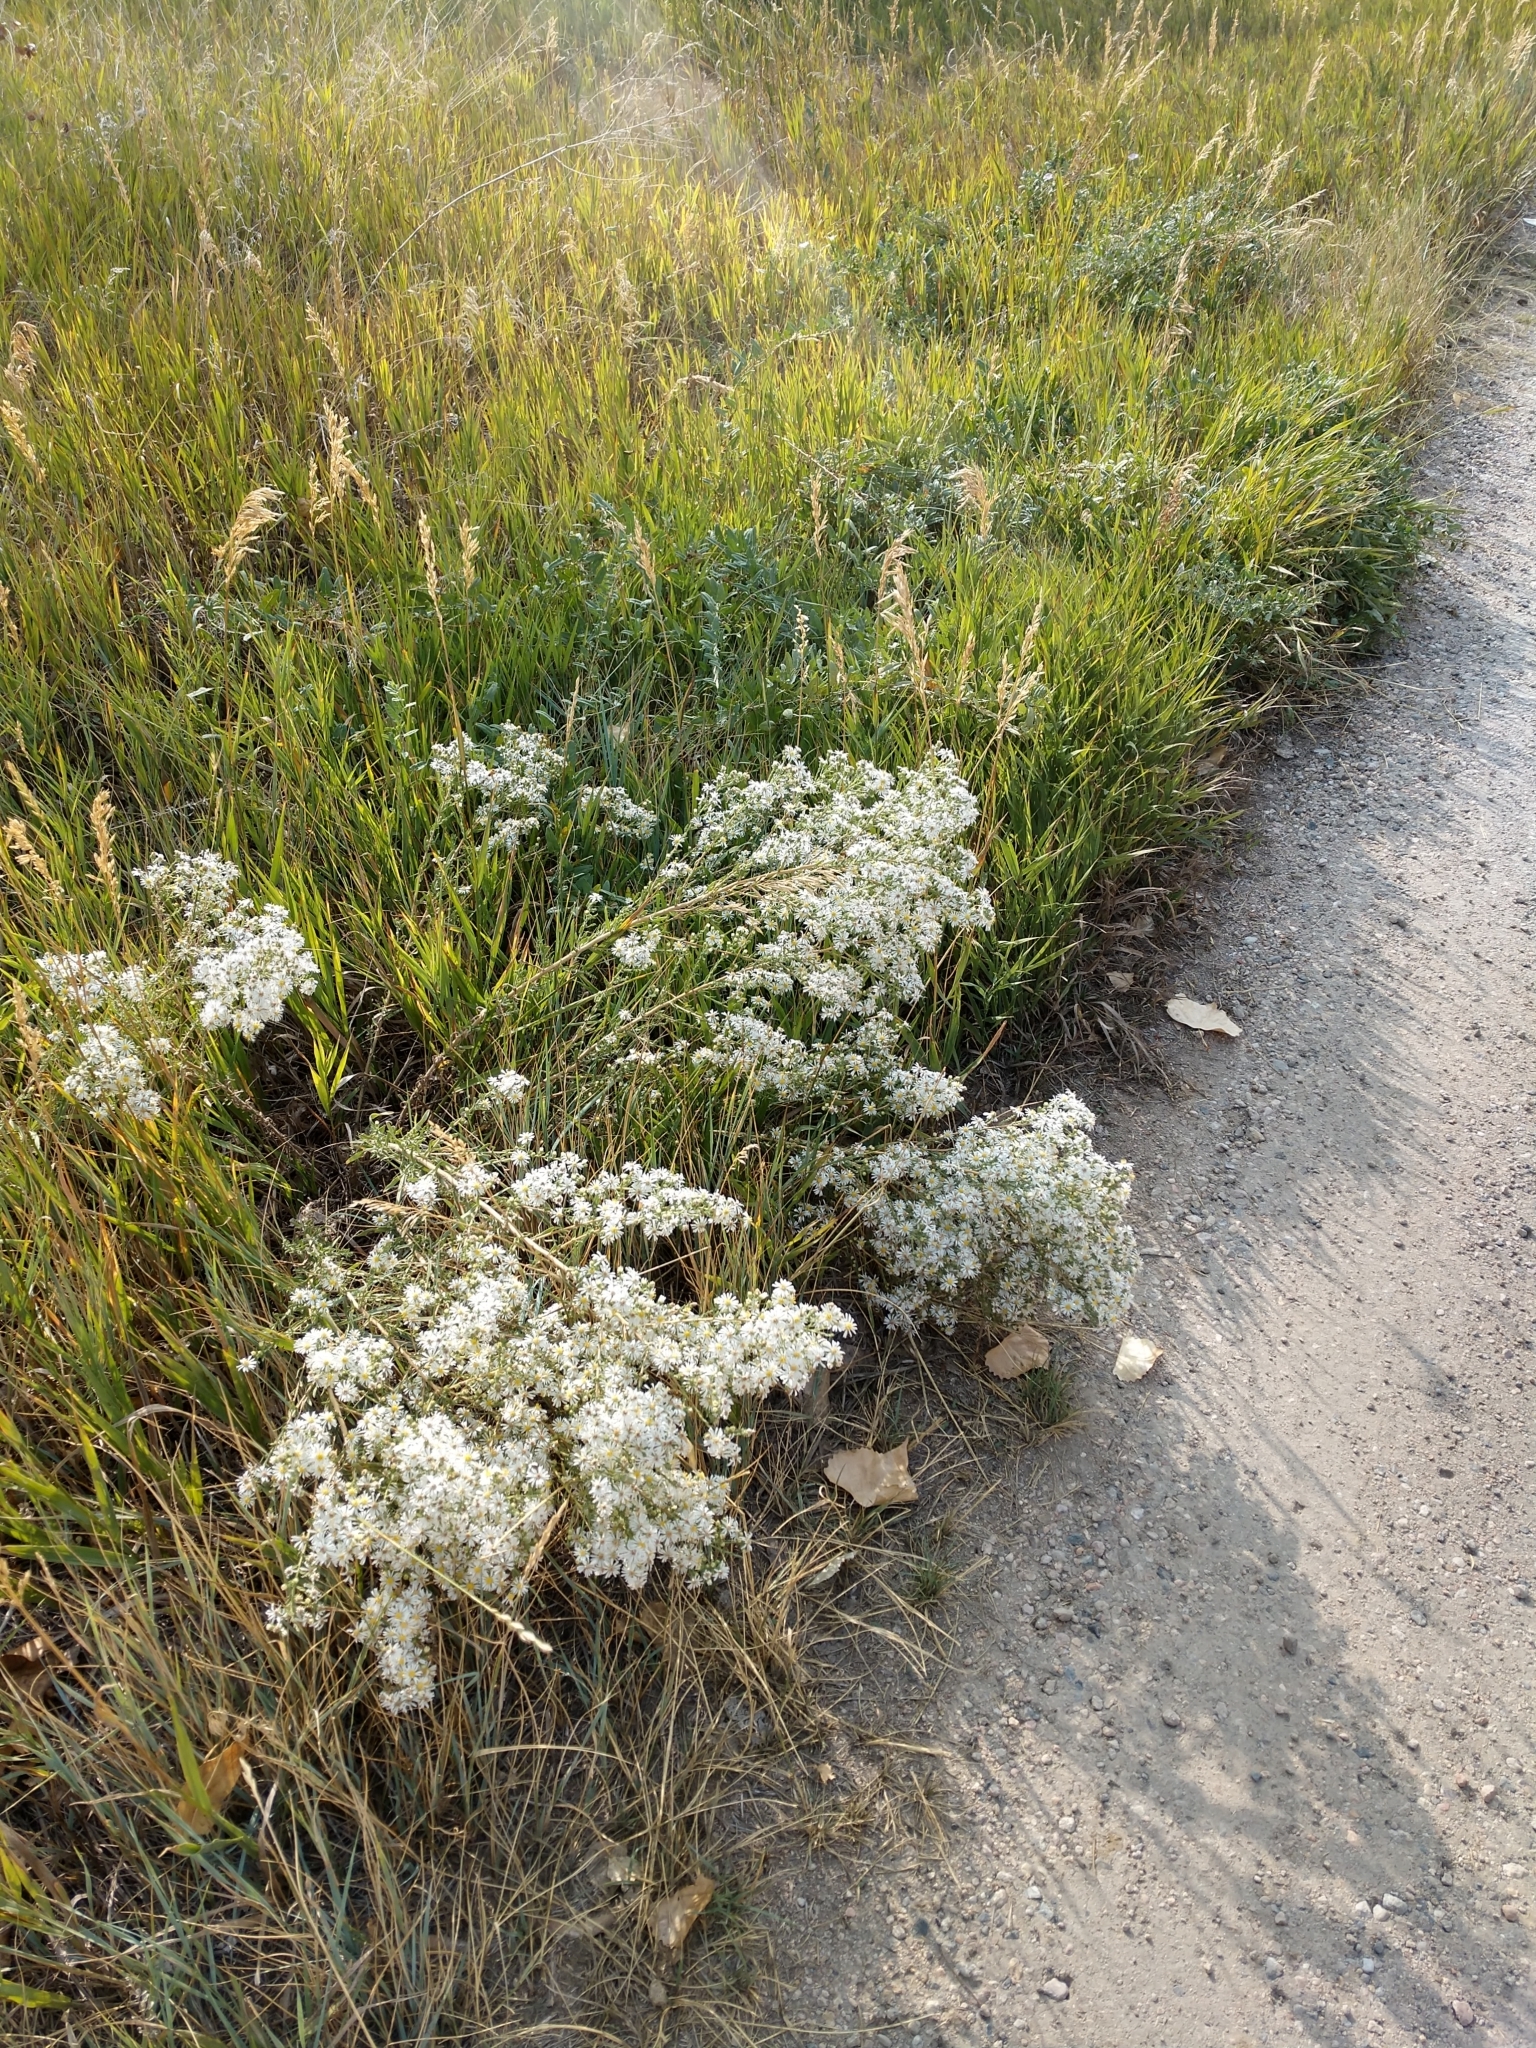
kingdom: Plantae
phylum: Tracheophyta
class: Magnoliopsida
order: Asterales
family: Asteraceae
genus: Symphyotrichum
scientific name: Symphyotrichum ericoides
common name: Heath aster
